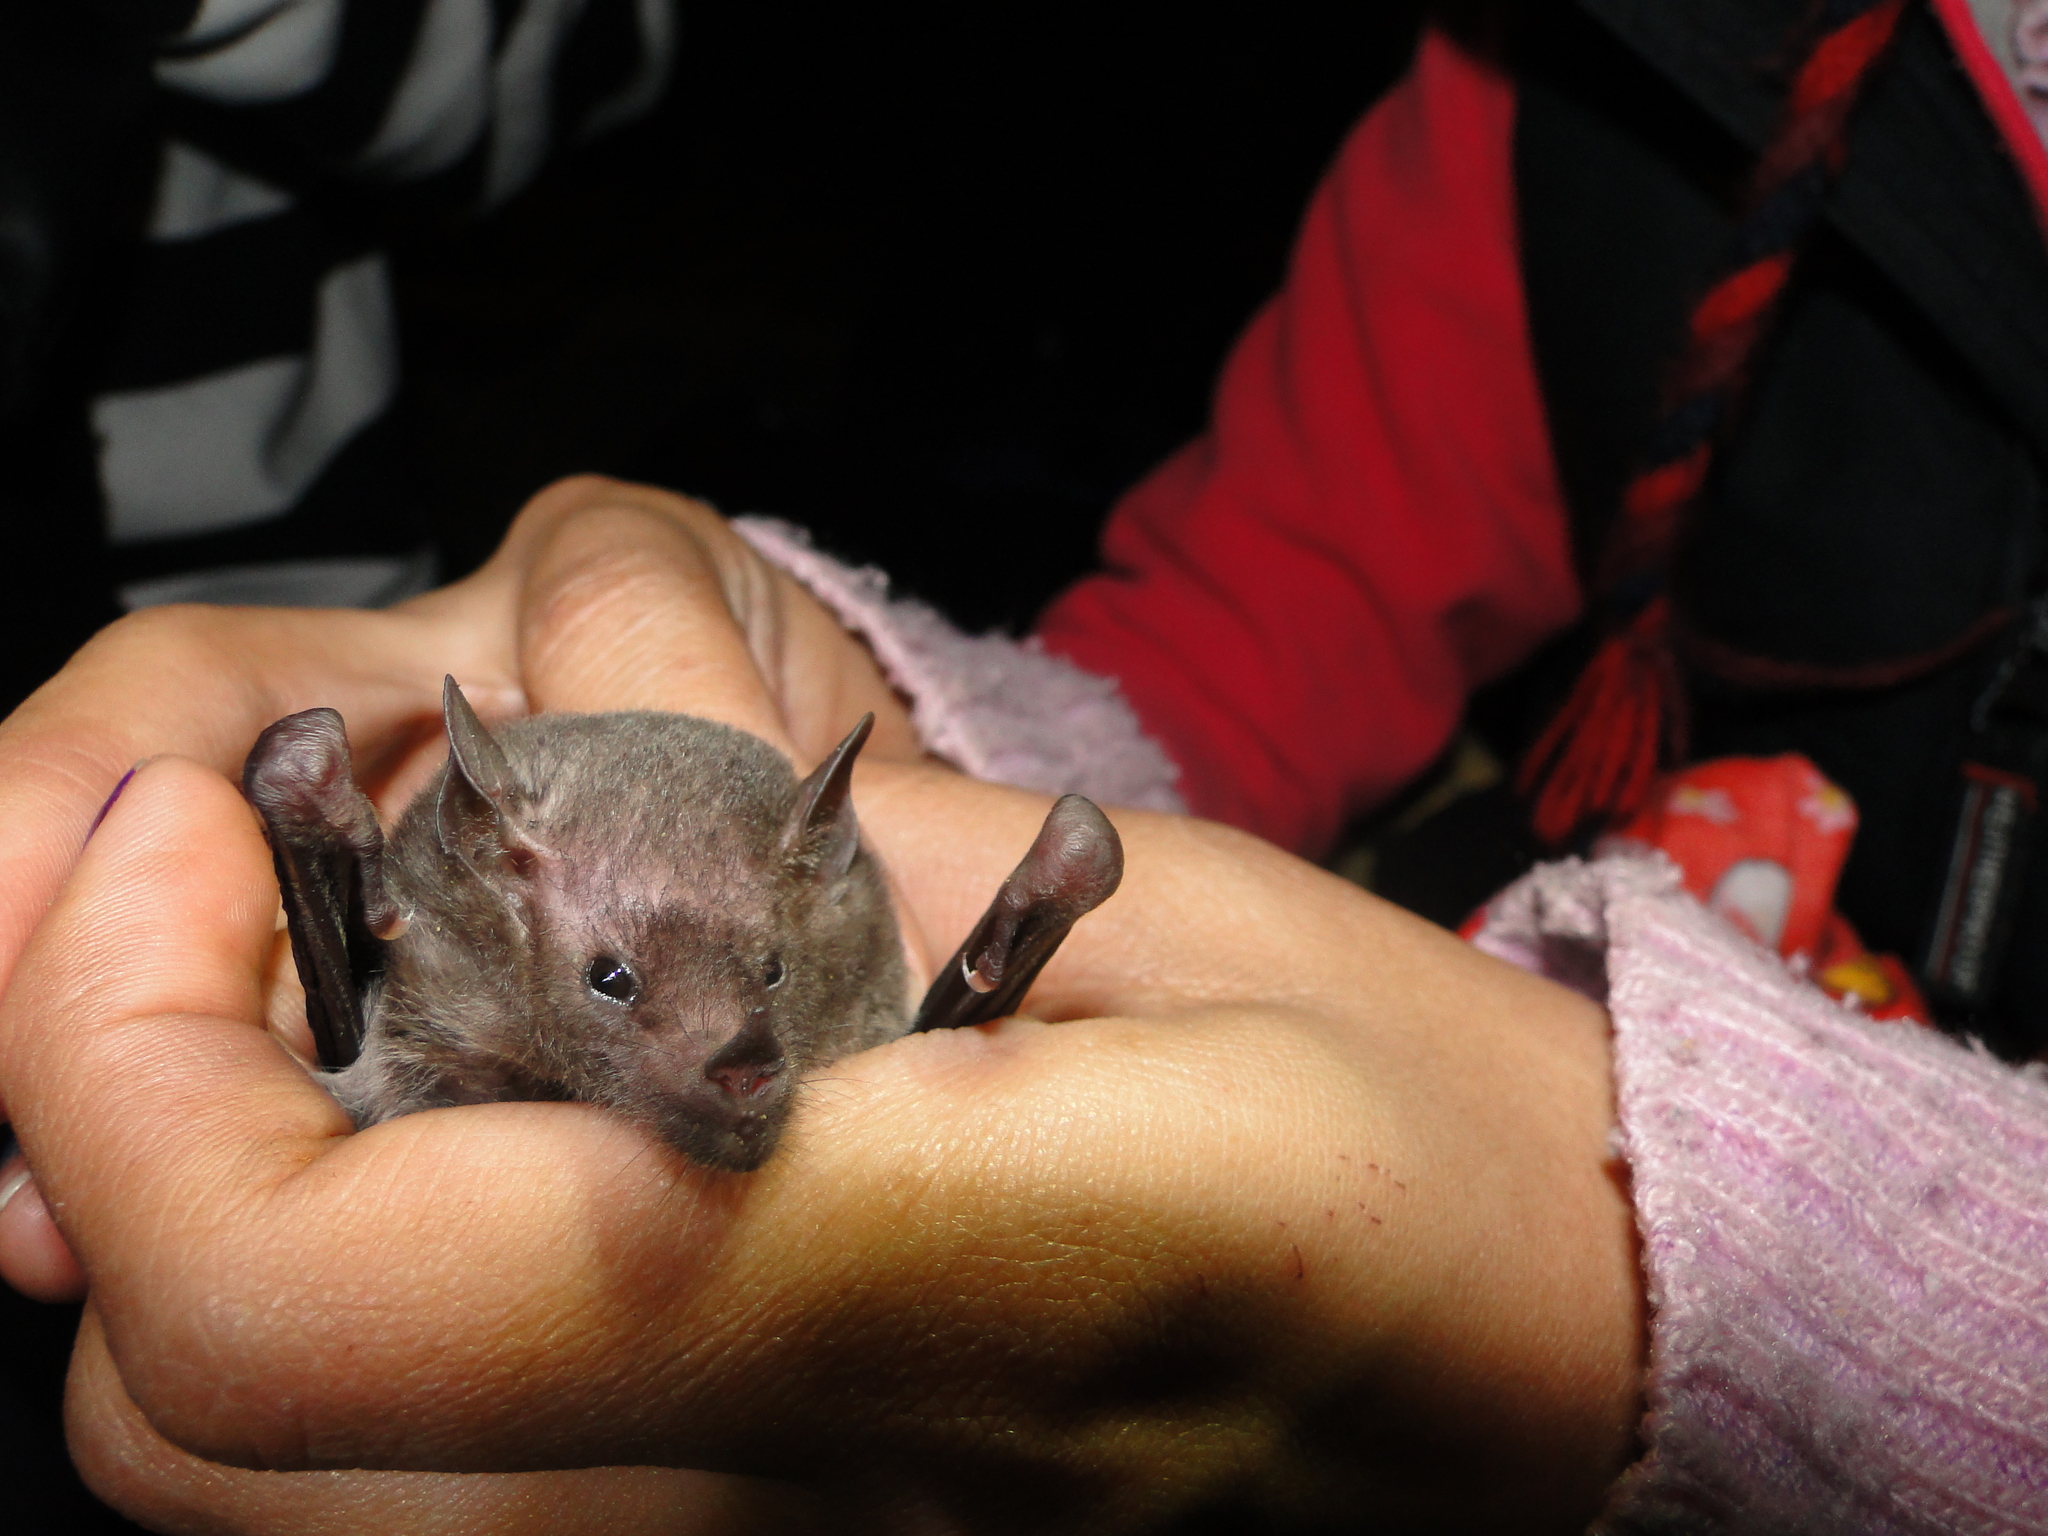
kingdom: Animalia
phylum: Chordata
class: Mammalia
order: Chiroptera
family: Phyllostomidae
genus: Anoura
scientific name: Anoura geoffroyi
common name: Geoffroy's tailless bat
